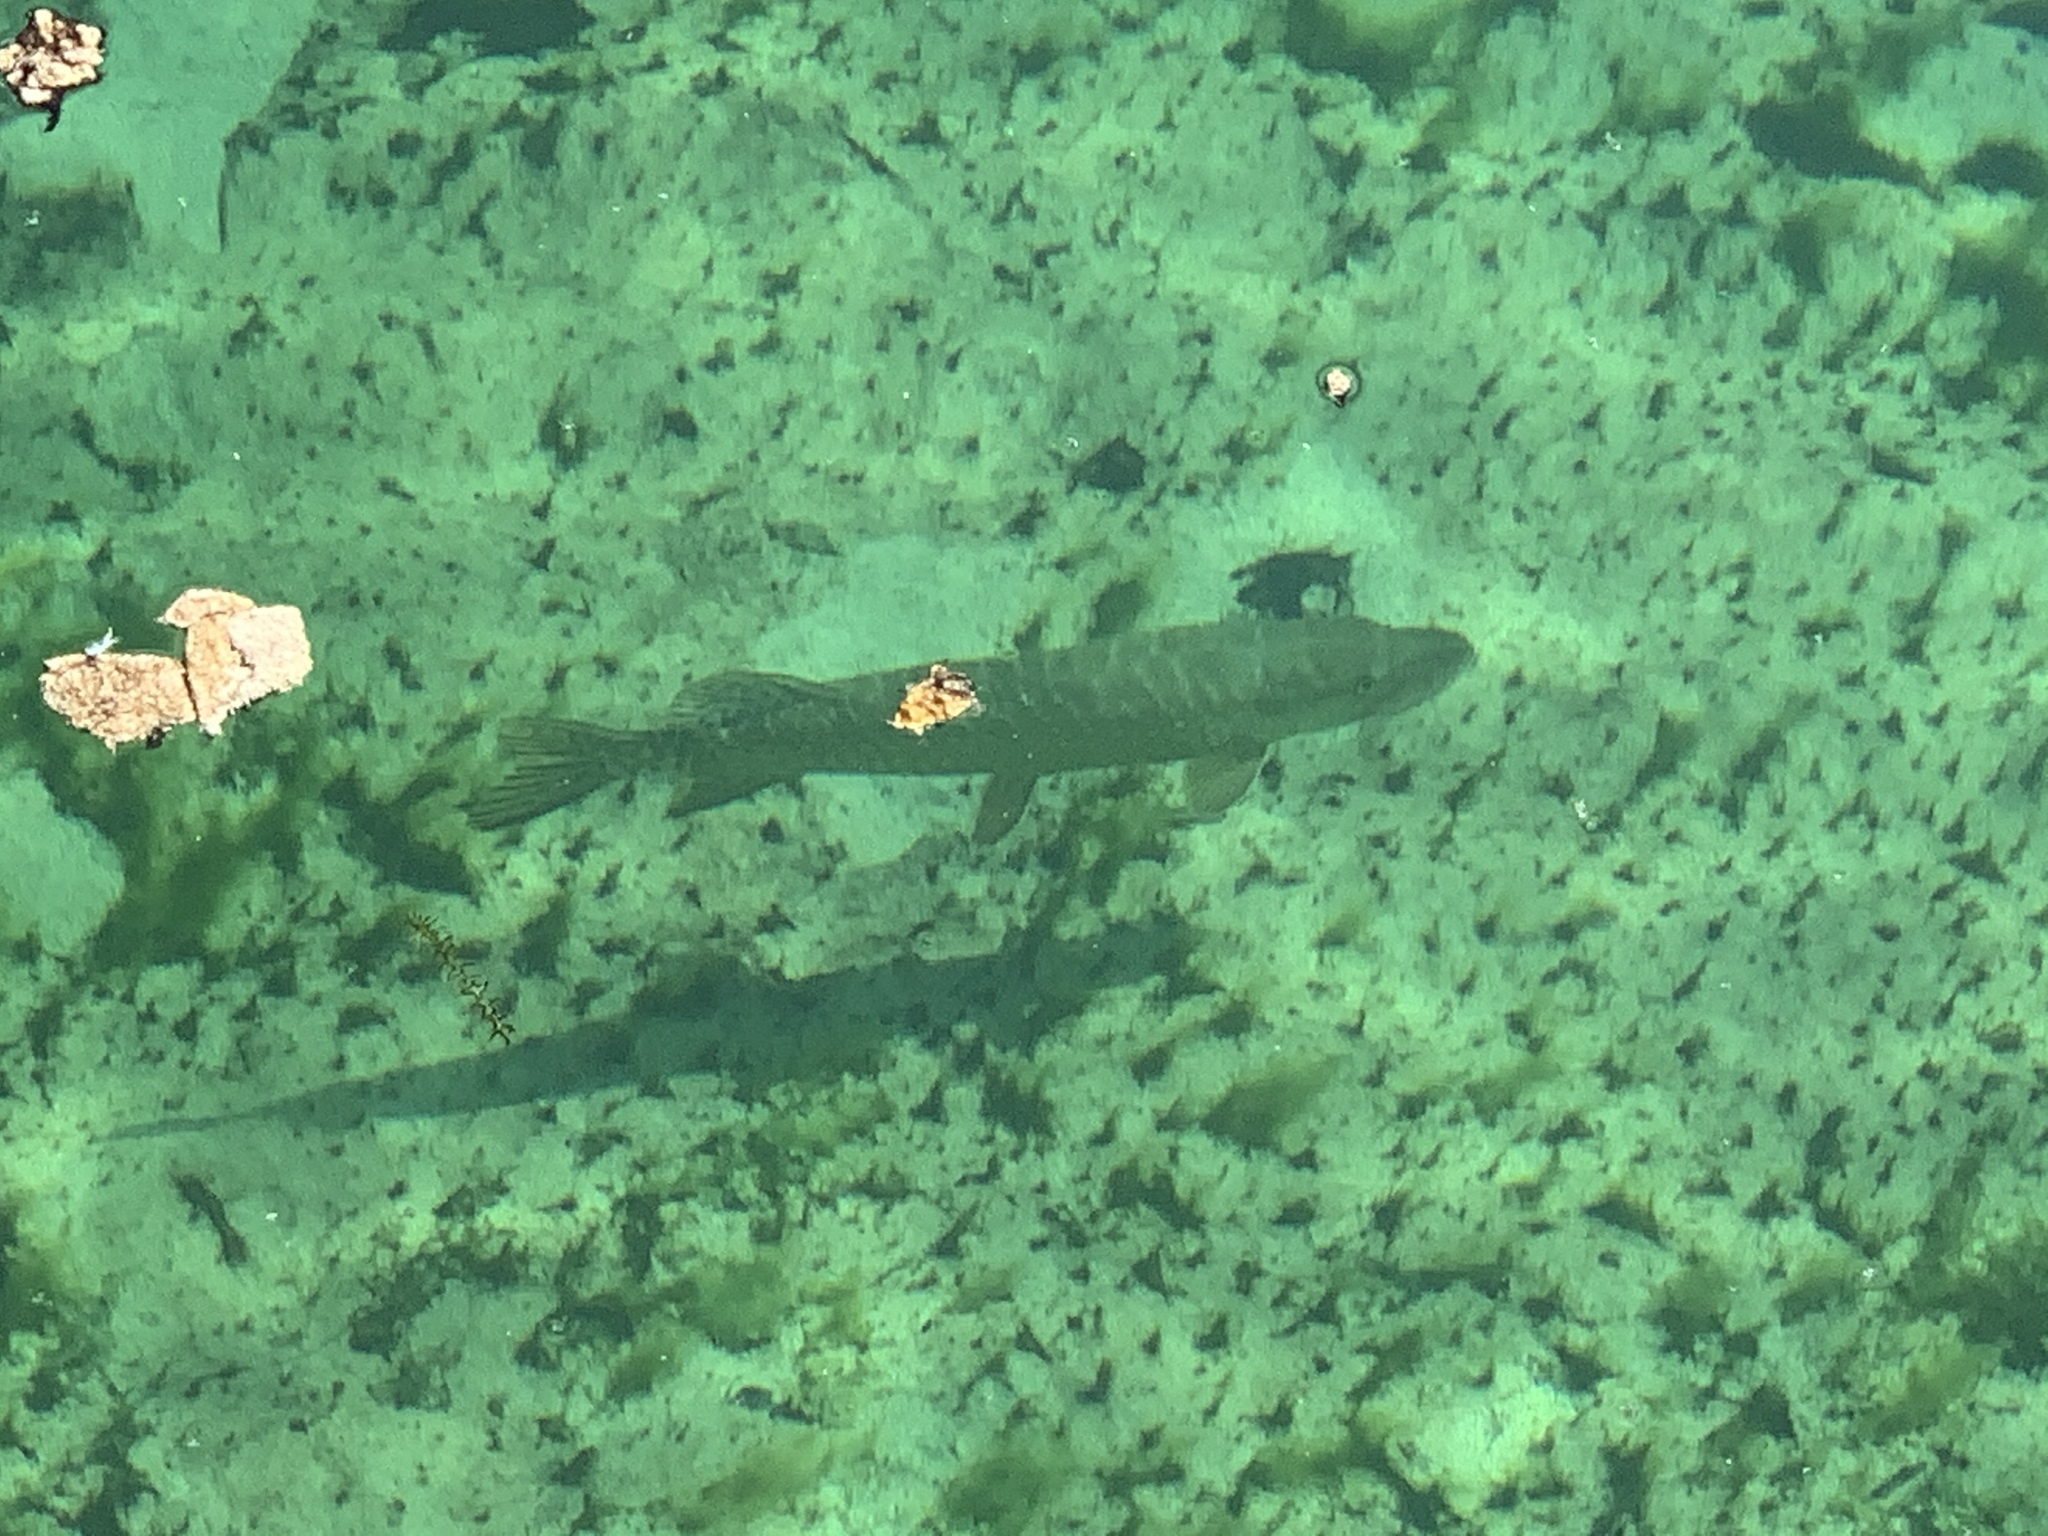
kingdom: Animalia
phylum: Chordata
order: Esociformes
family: Esocidae
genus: Esox
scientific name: Esox lucius
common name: Northern pike
